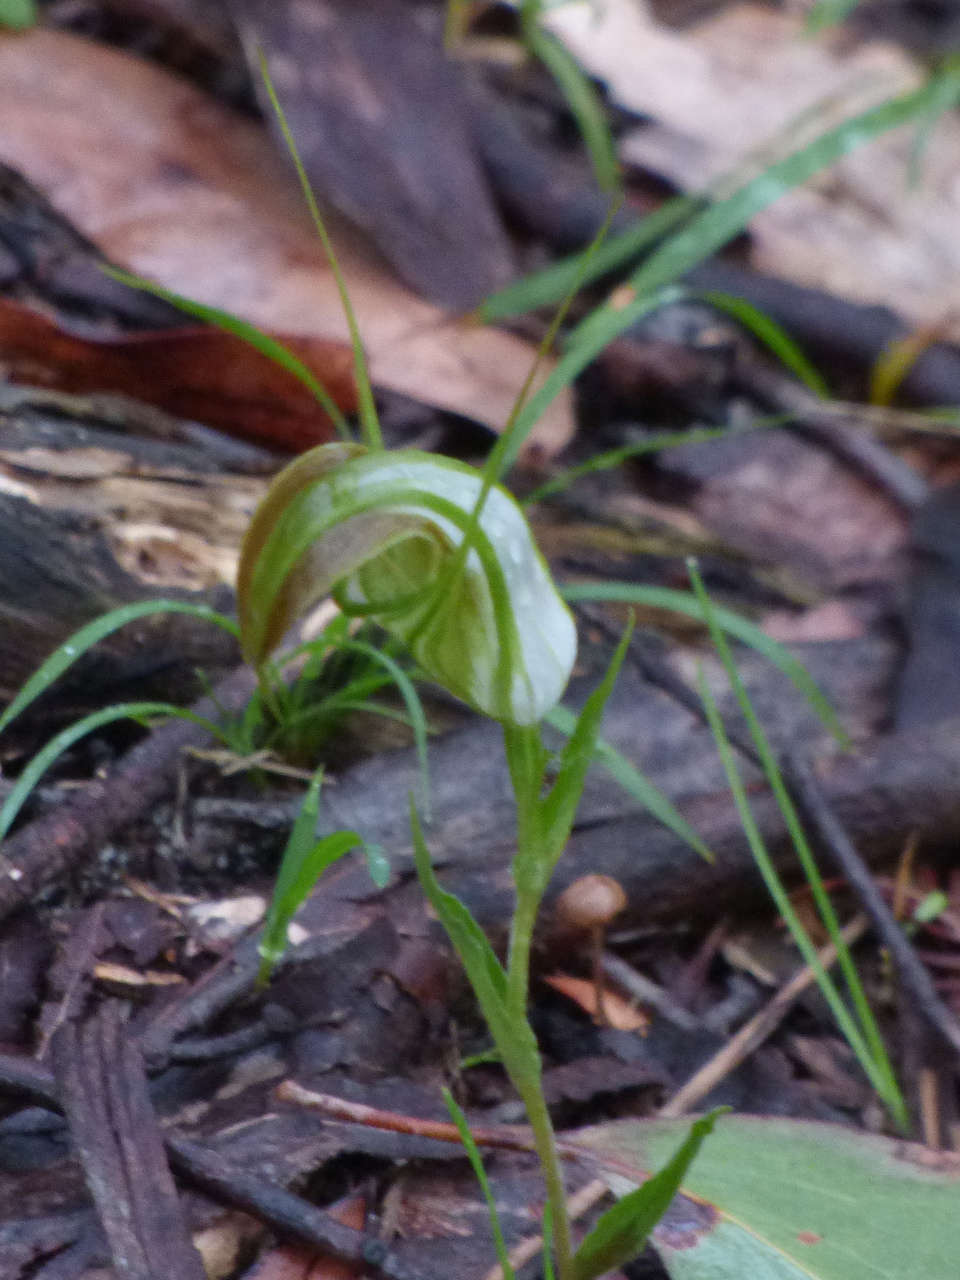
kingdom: Plantae
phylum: Tracheophyta
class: Liliopsida
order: Asparagales
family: Orchidaceae
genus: Pterostylis
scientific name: Pterostylis grandiflora
